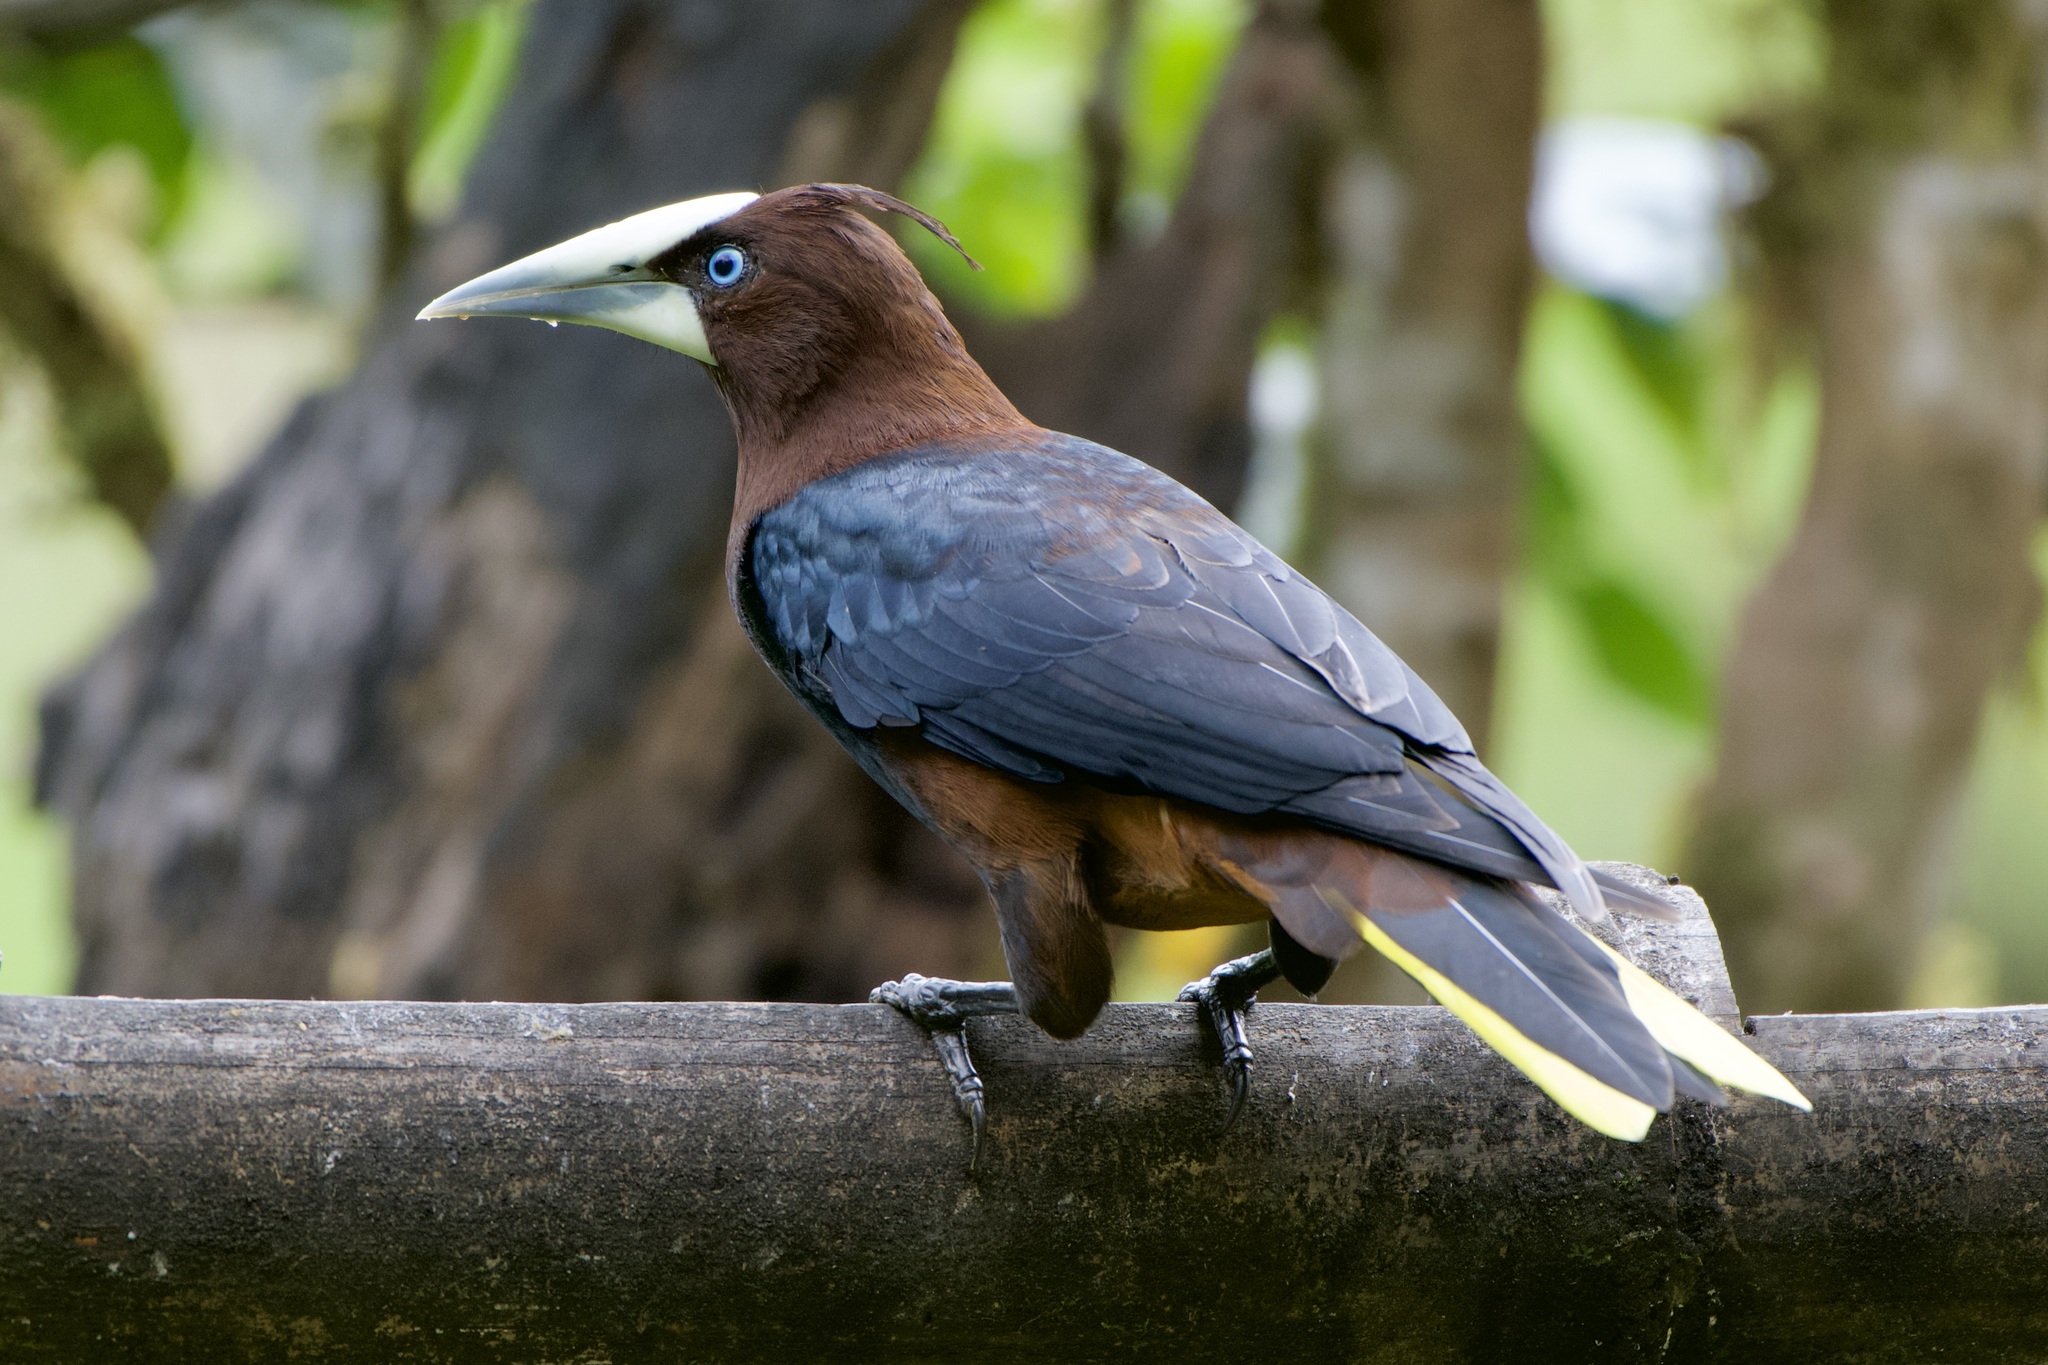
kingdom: Animalia
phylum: Chordata
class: Aves
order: Passeriformes
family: Icteridae
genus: Psarocolius
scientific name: Psarocolius wagleri
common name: Chestnut-headed oropendola
